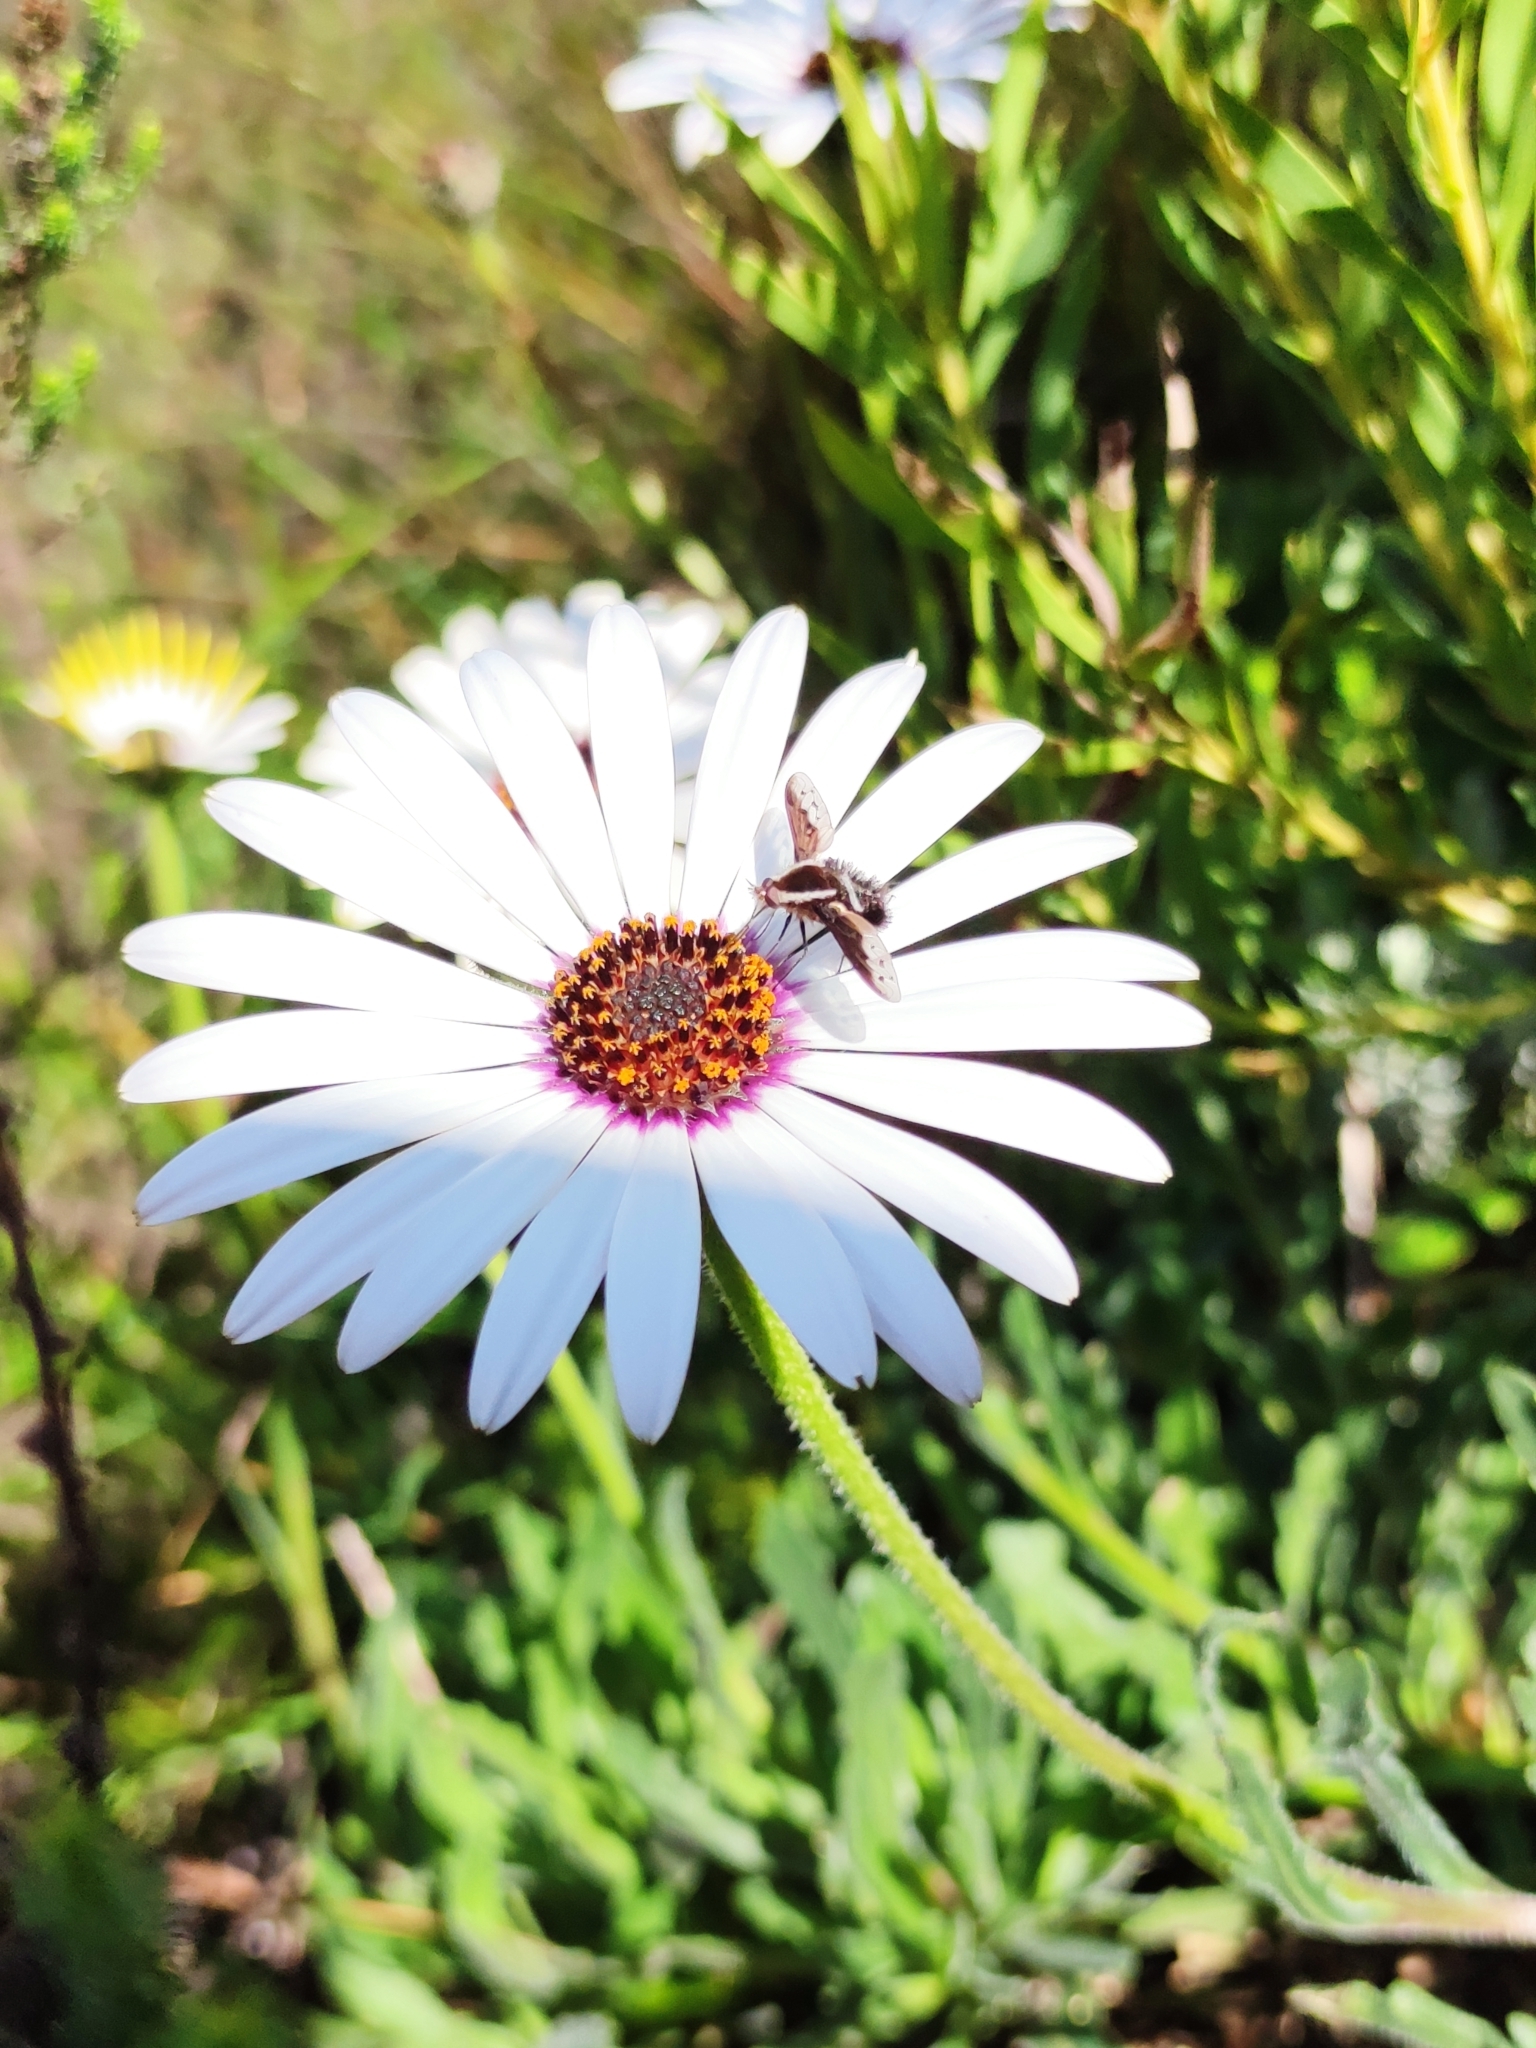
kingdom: Animalia
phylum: Arthropoda
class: Insecta
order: Diptera
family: Bombyliidae
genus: Triplasius
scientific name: Triplasius lateralis
